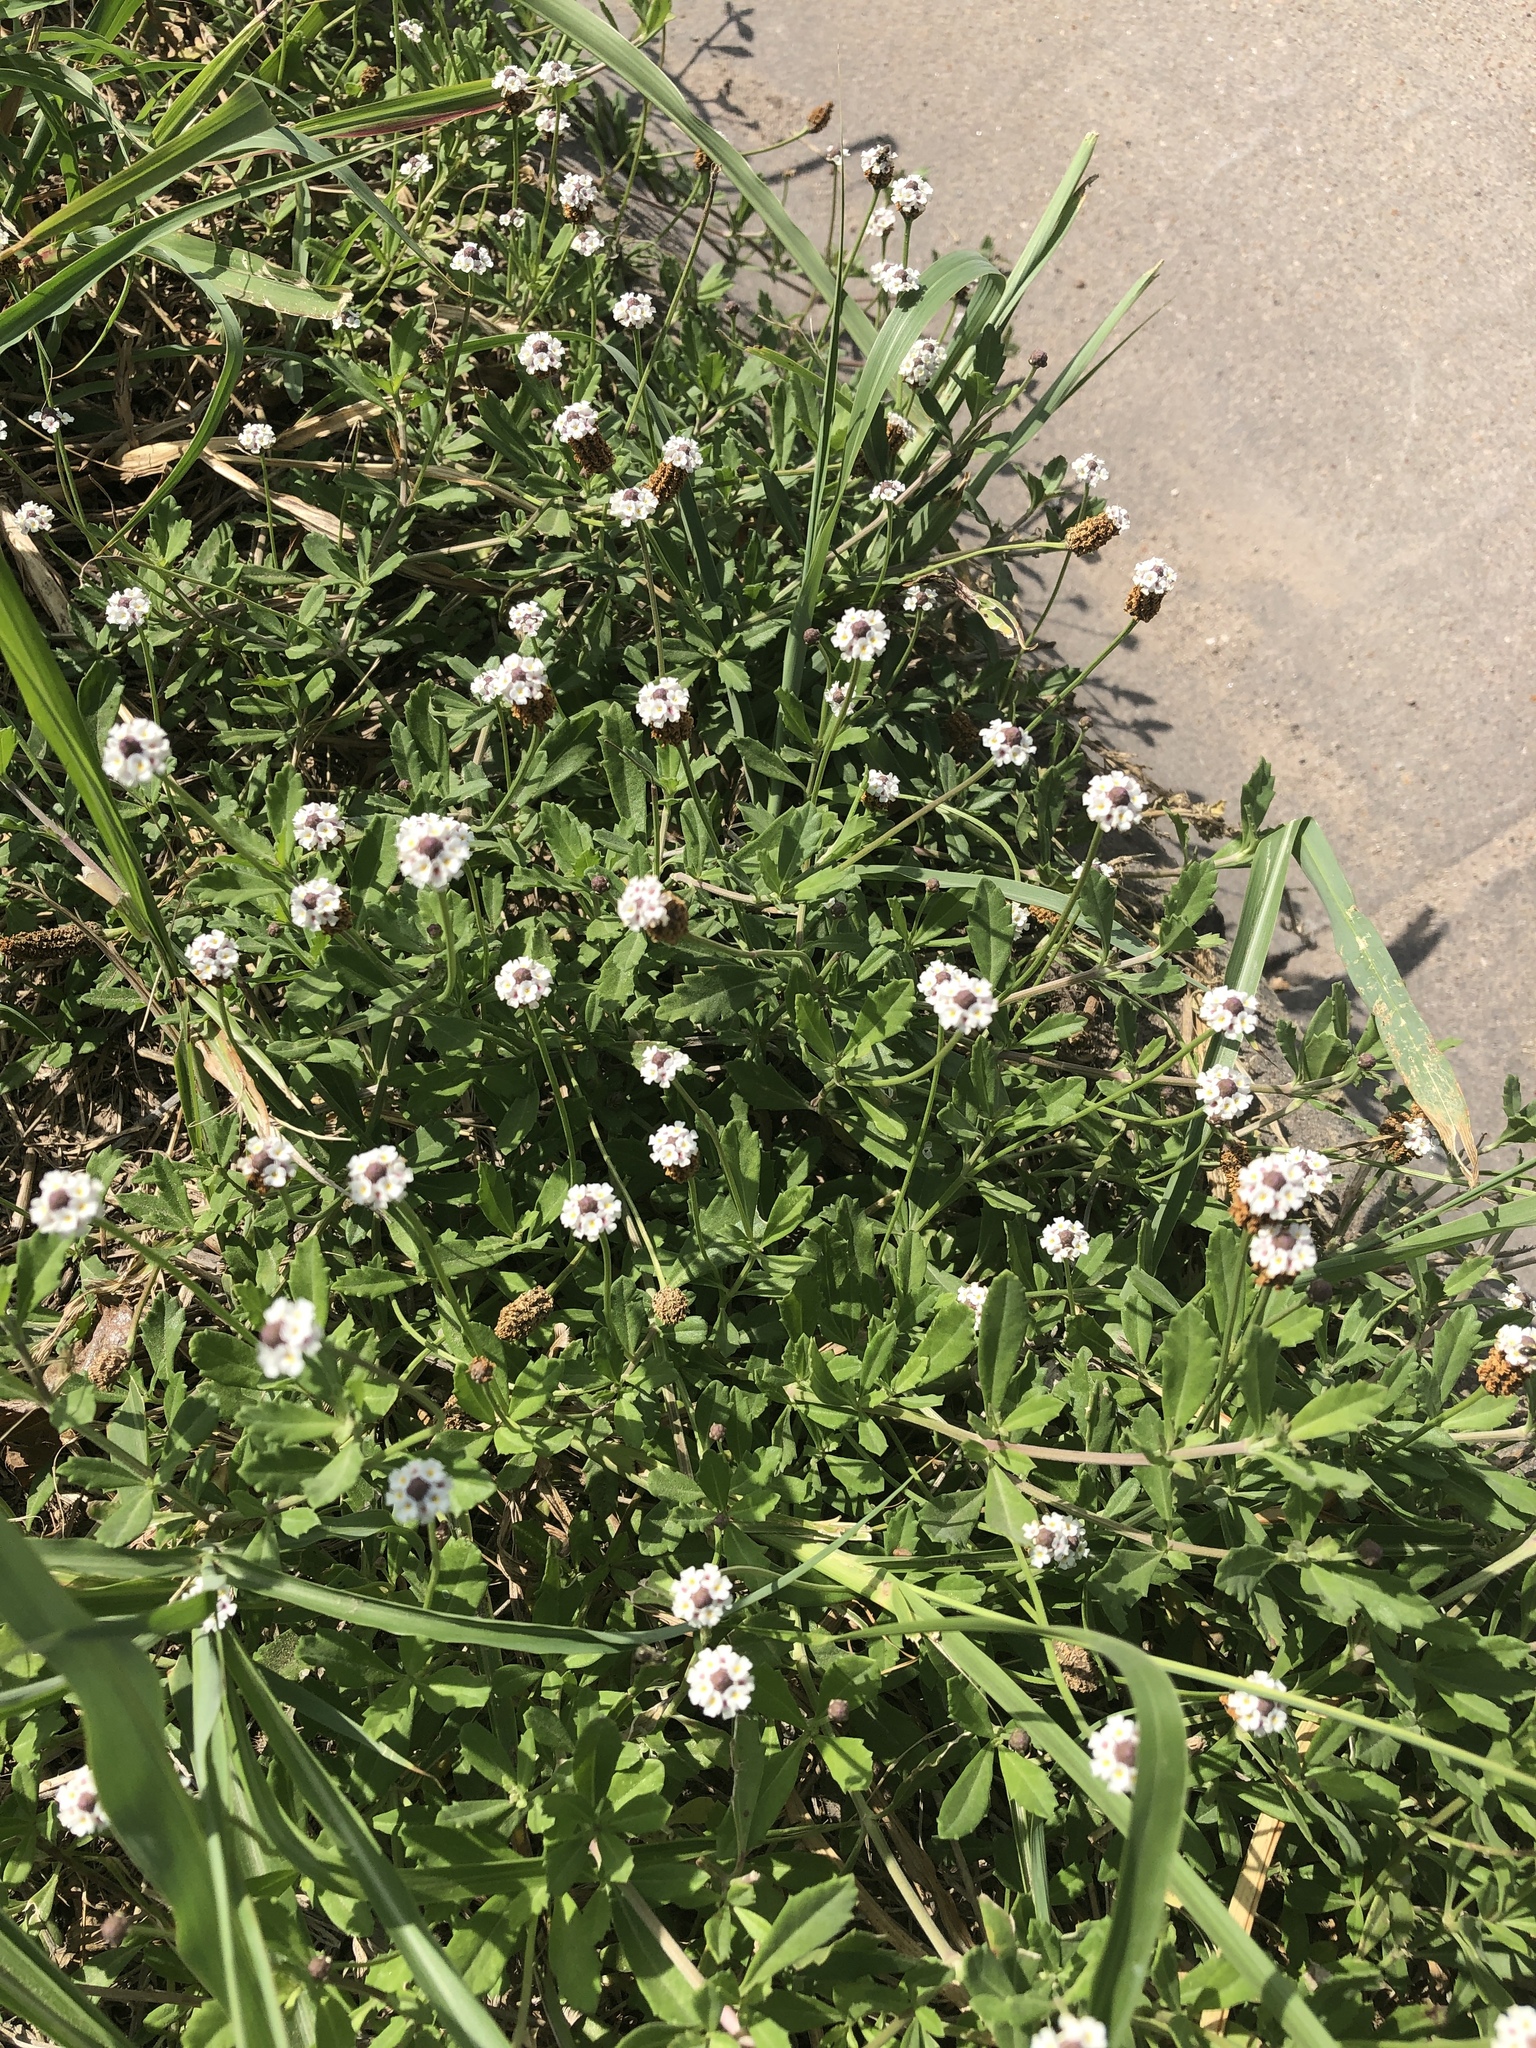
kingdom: Plantae
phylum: Tracheophyta
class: Magnoliopsida
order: Lamiales
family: Verbenaceae
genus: Phyla
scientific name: Phyla nodiflora
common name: Frogfruit
